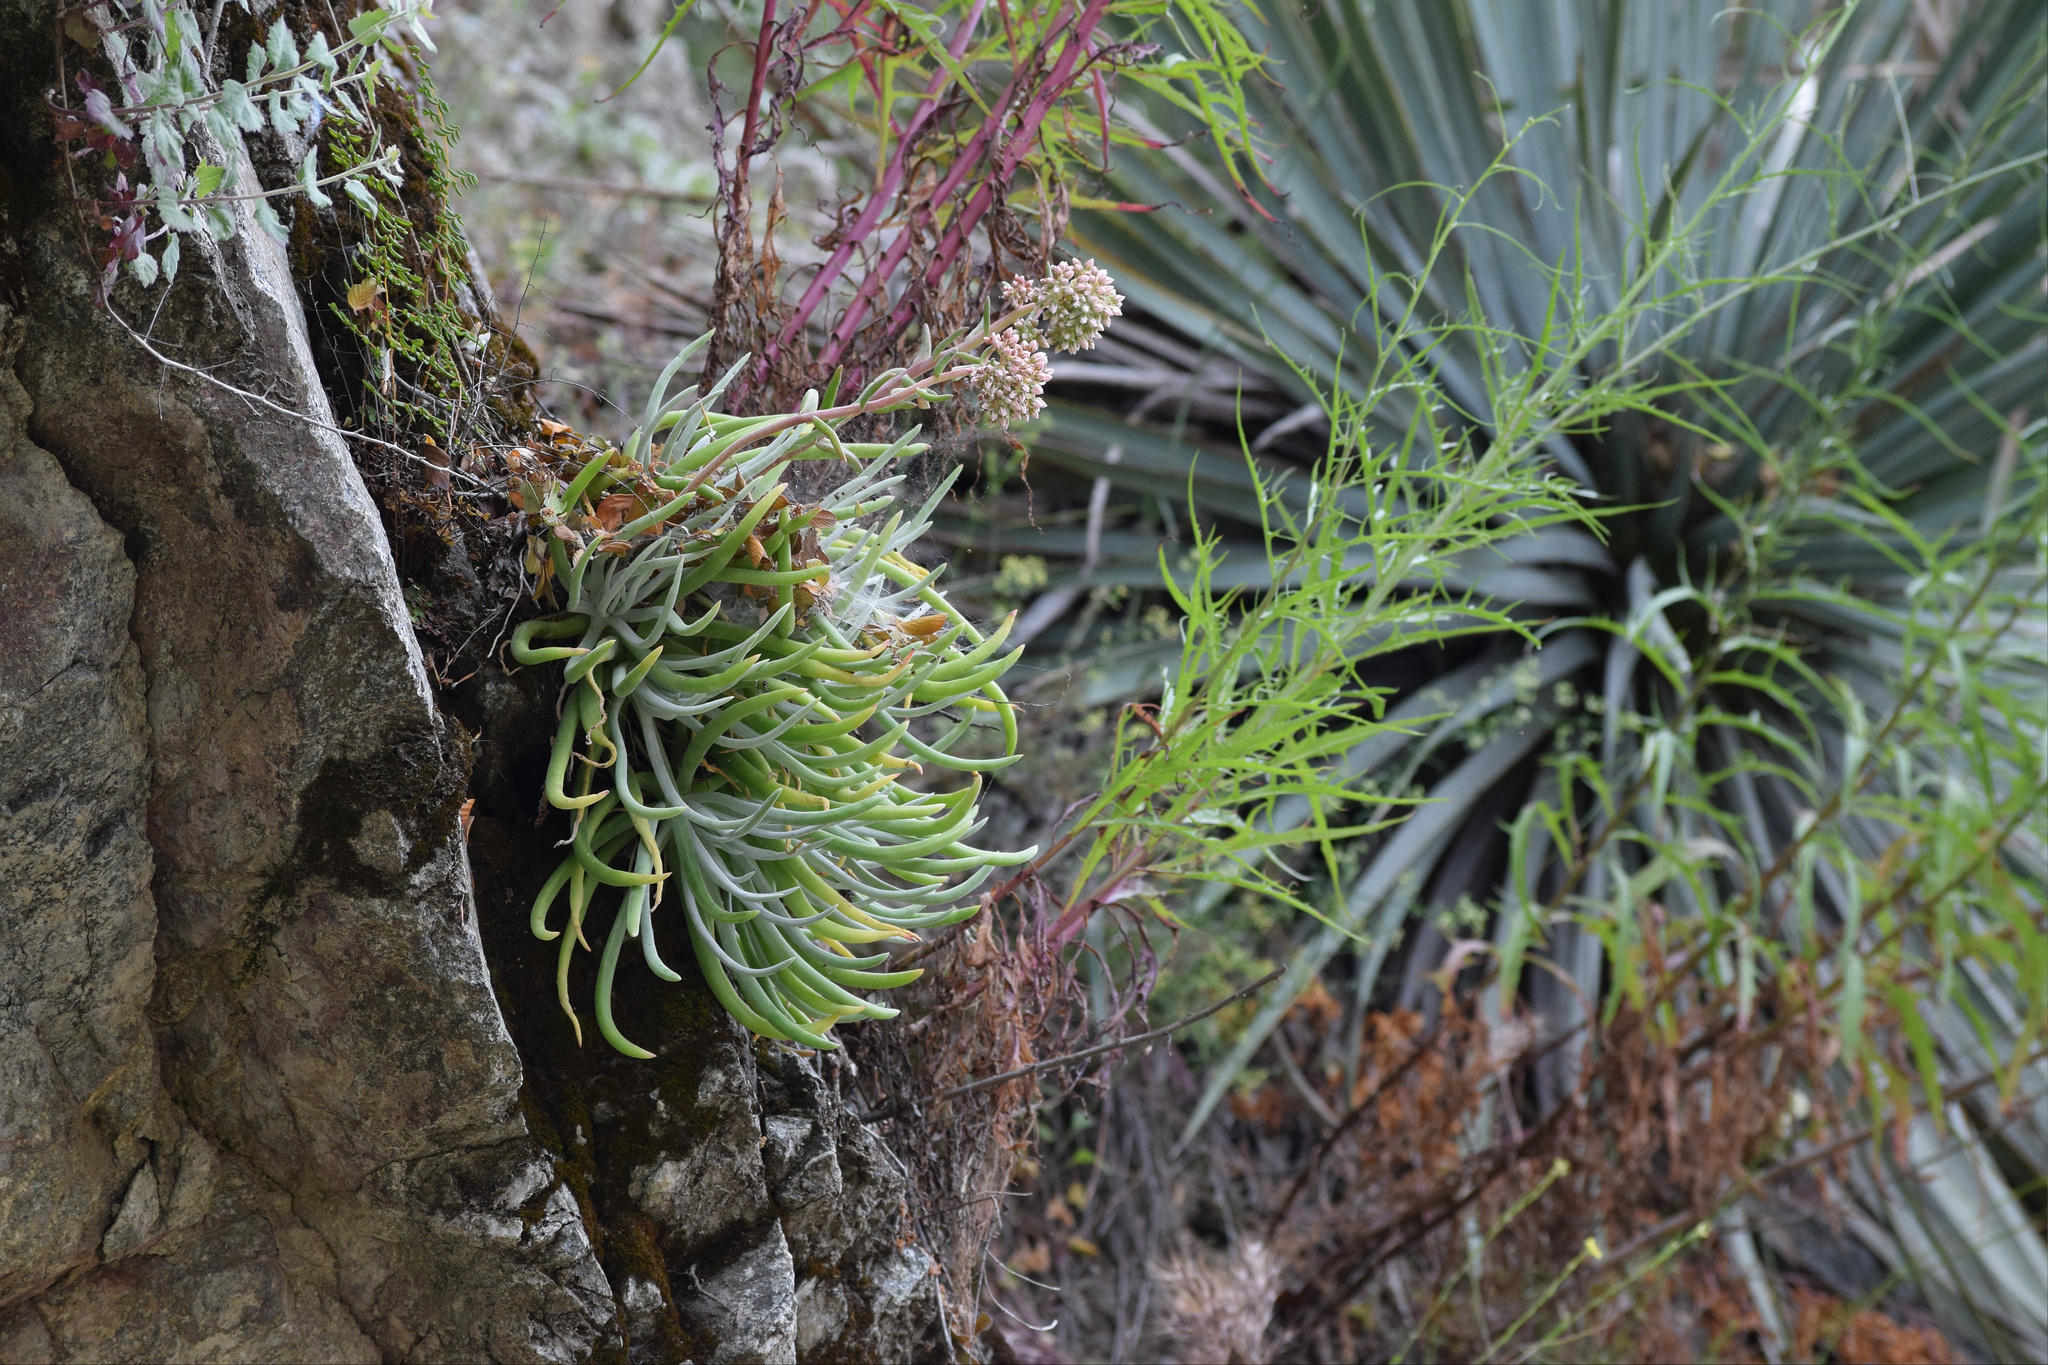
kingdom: Plantae
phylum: Tracheophyta
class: Magnoliopsida
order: Saxifragales
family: Crassulaceae
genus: Dudleya
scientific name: Dudleya densiflora
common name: San gabriel mountains dudleya
